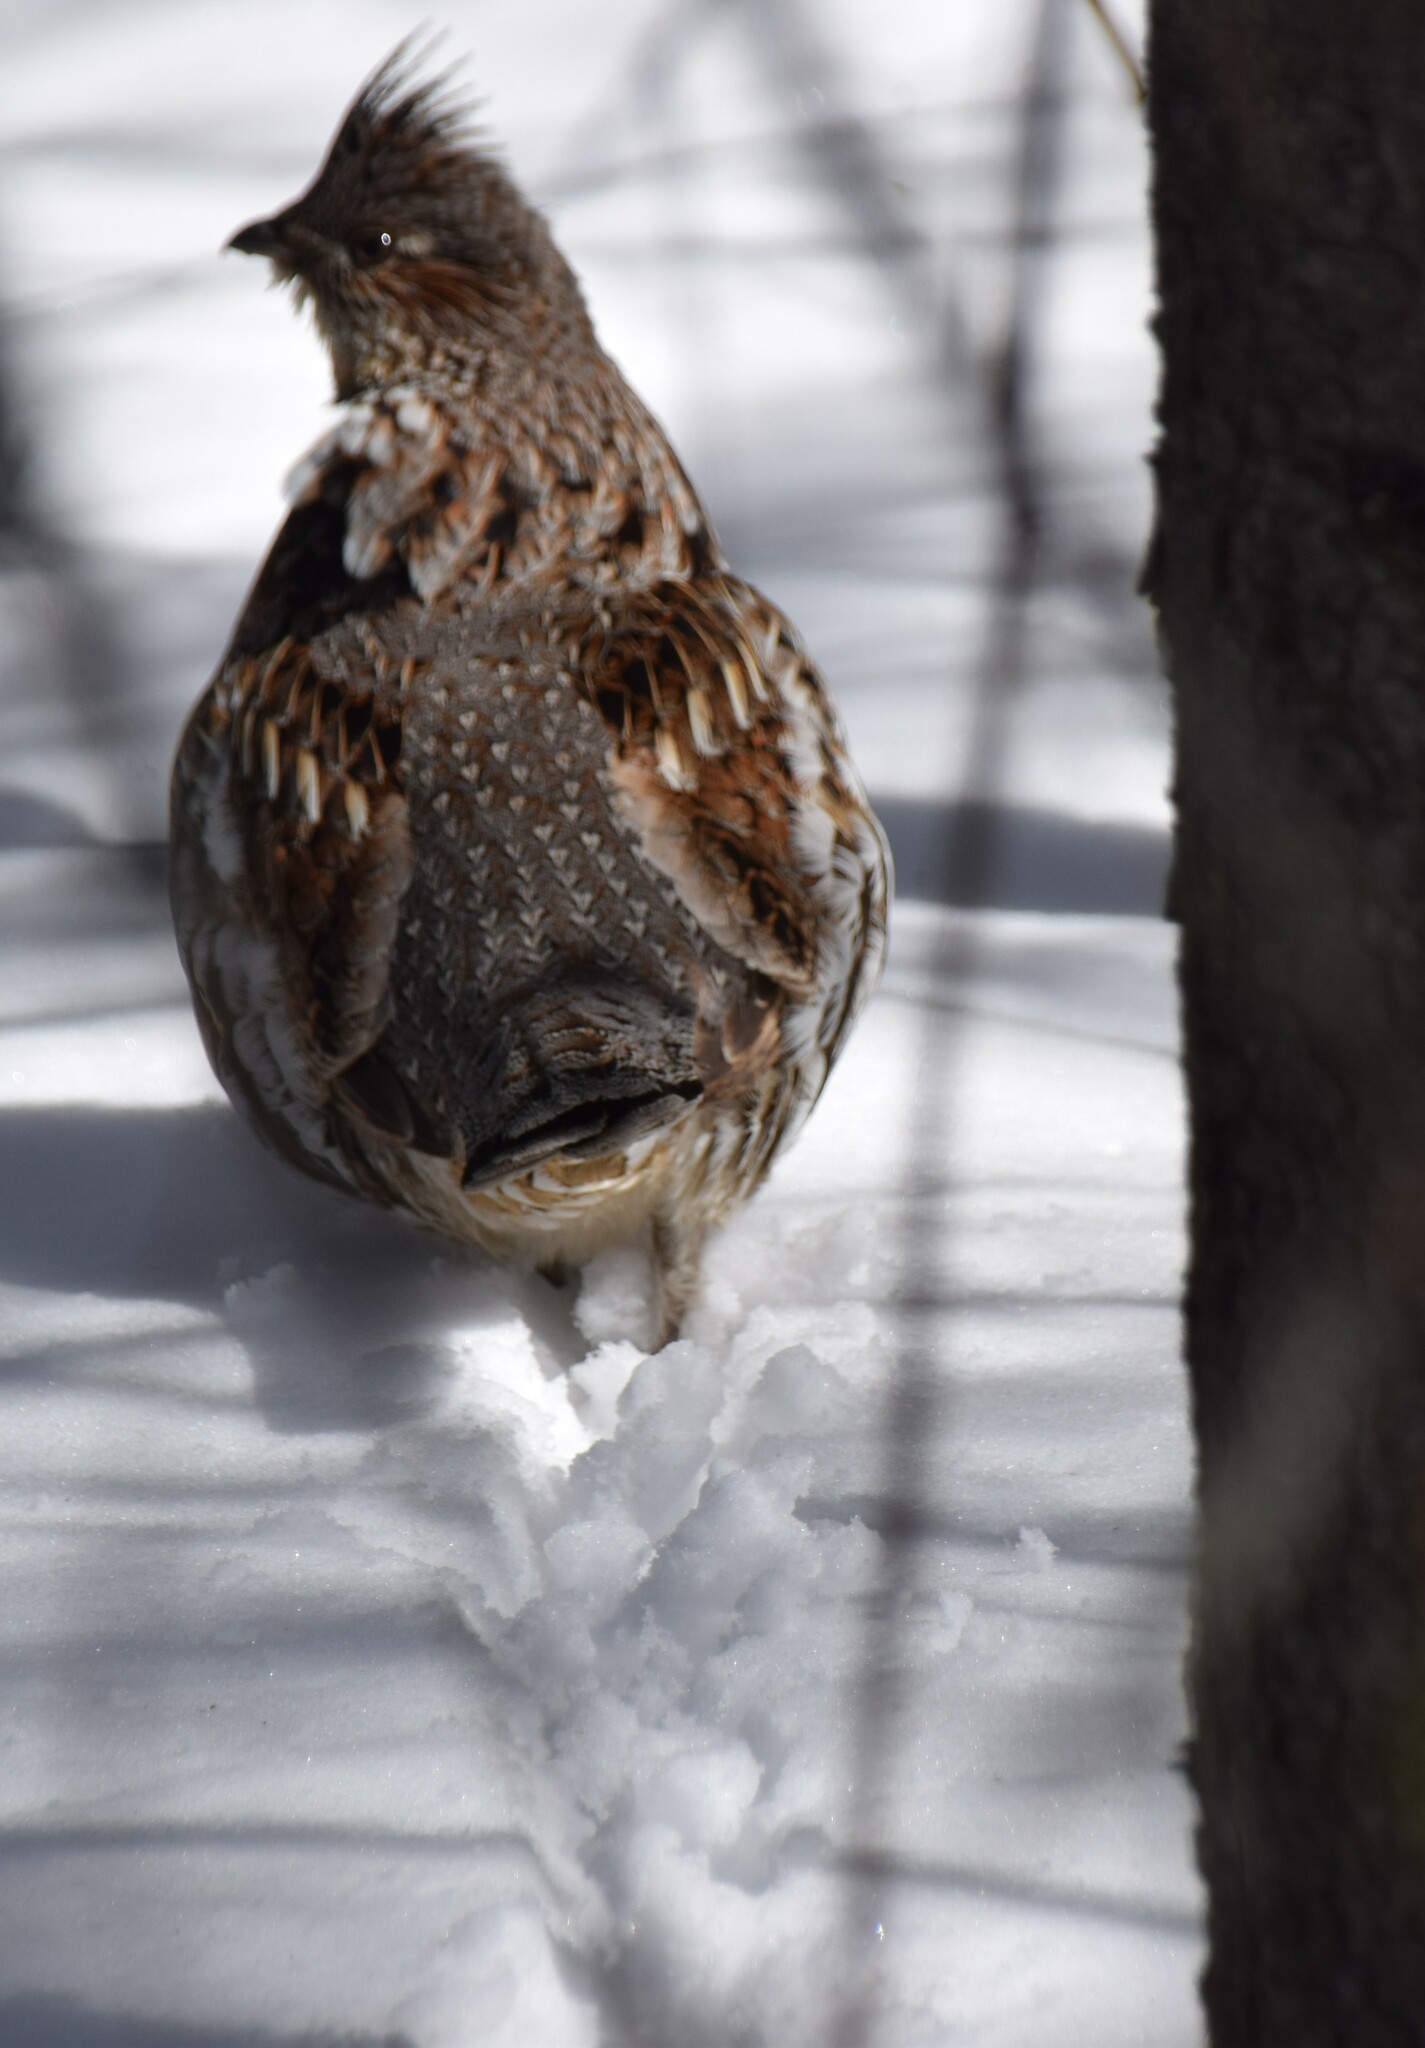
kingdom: Animalia
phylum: Chordata
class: Aves
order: Galliformes
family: Phasianidae
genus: Bonasa
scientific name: Bonasa umbellus
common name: Ruffed grouse
